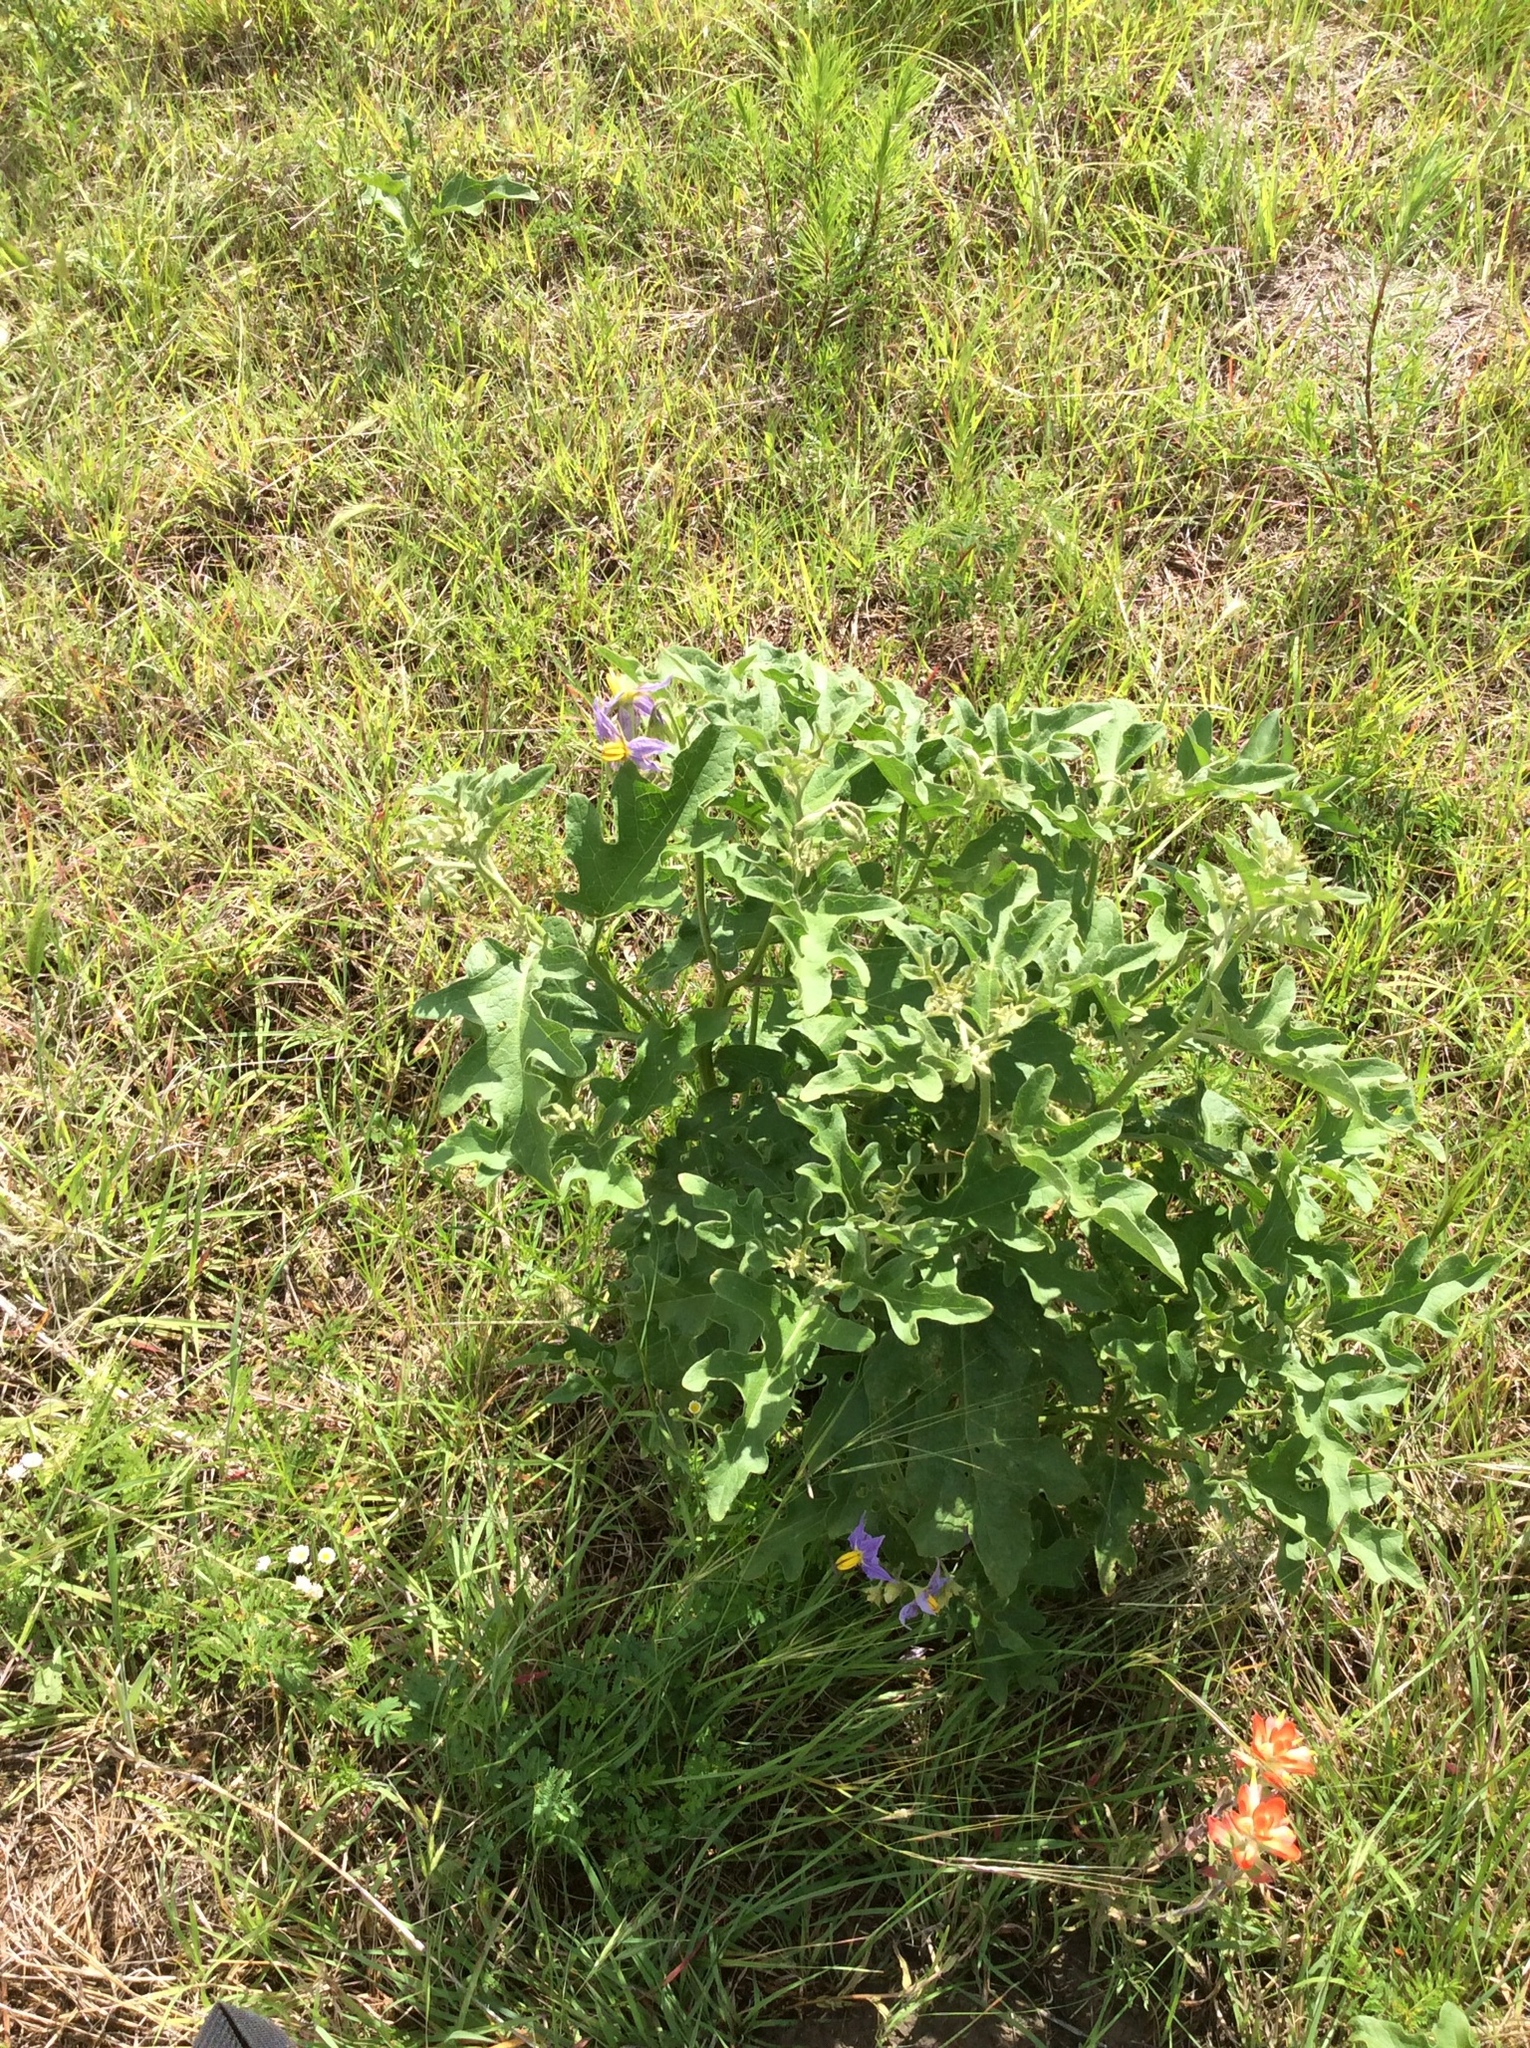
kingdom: Plantae
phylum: Tracheophyta
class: Magnoliopsida
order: Solanales
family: Solanaceae
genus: Solanum
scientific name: Solanum dimidiatum
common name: Carolina horse-nettle
